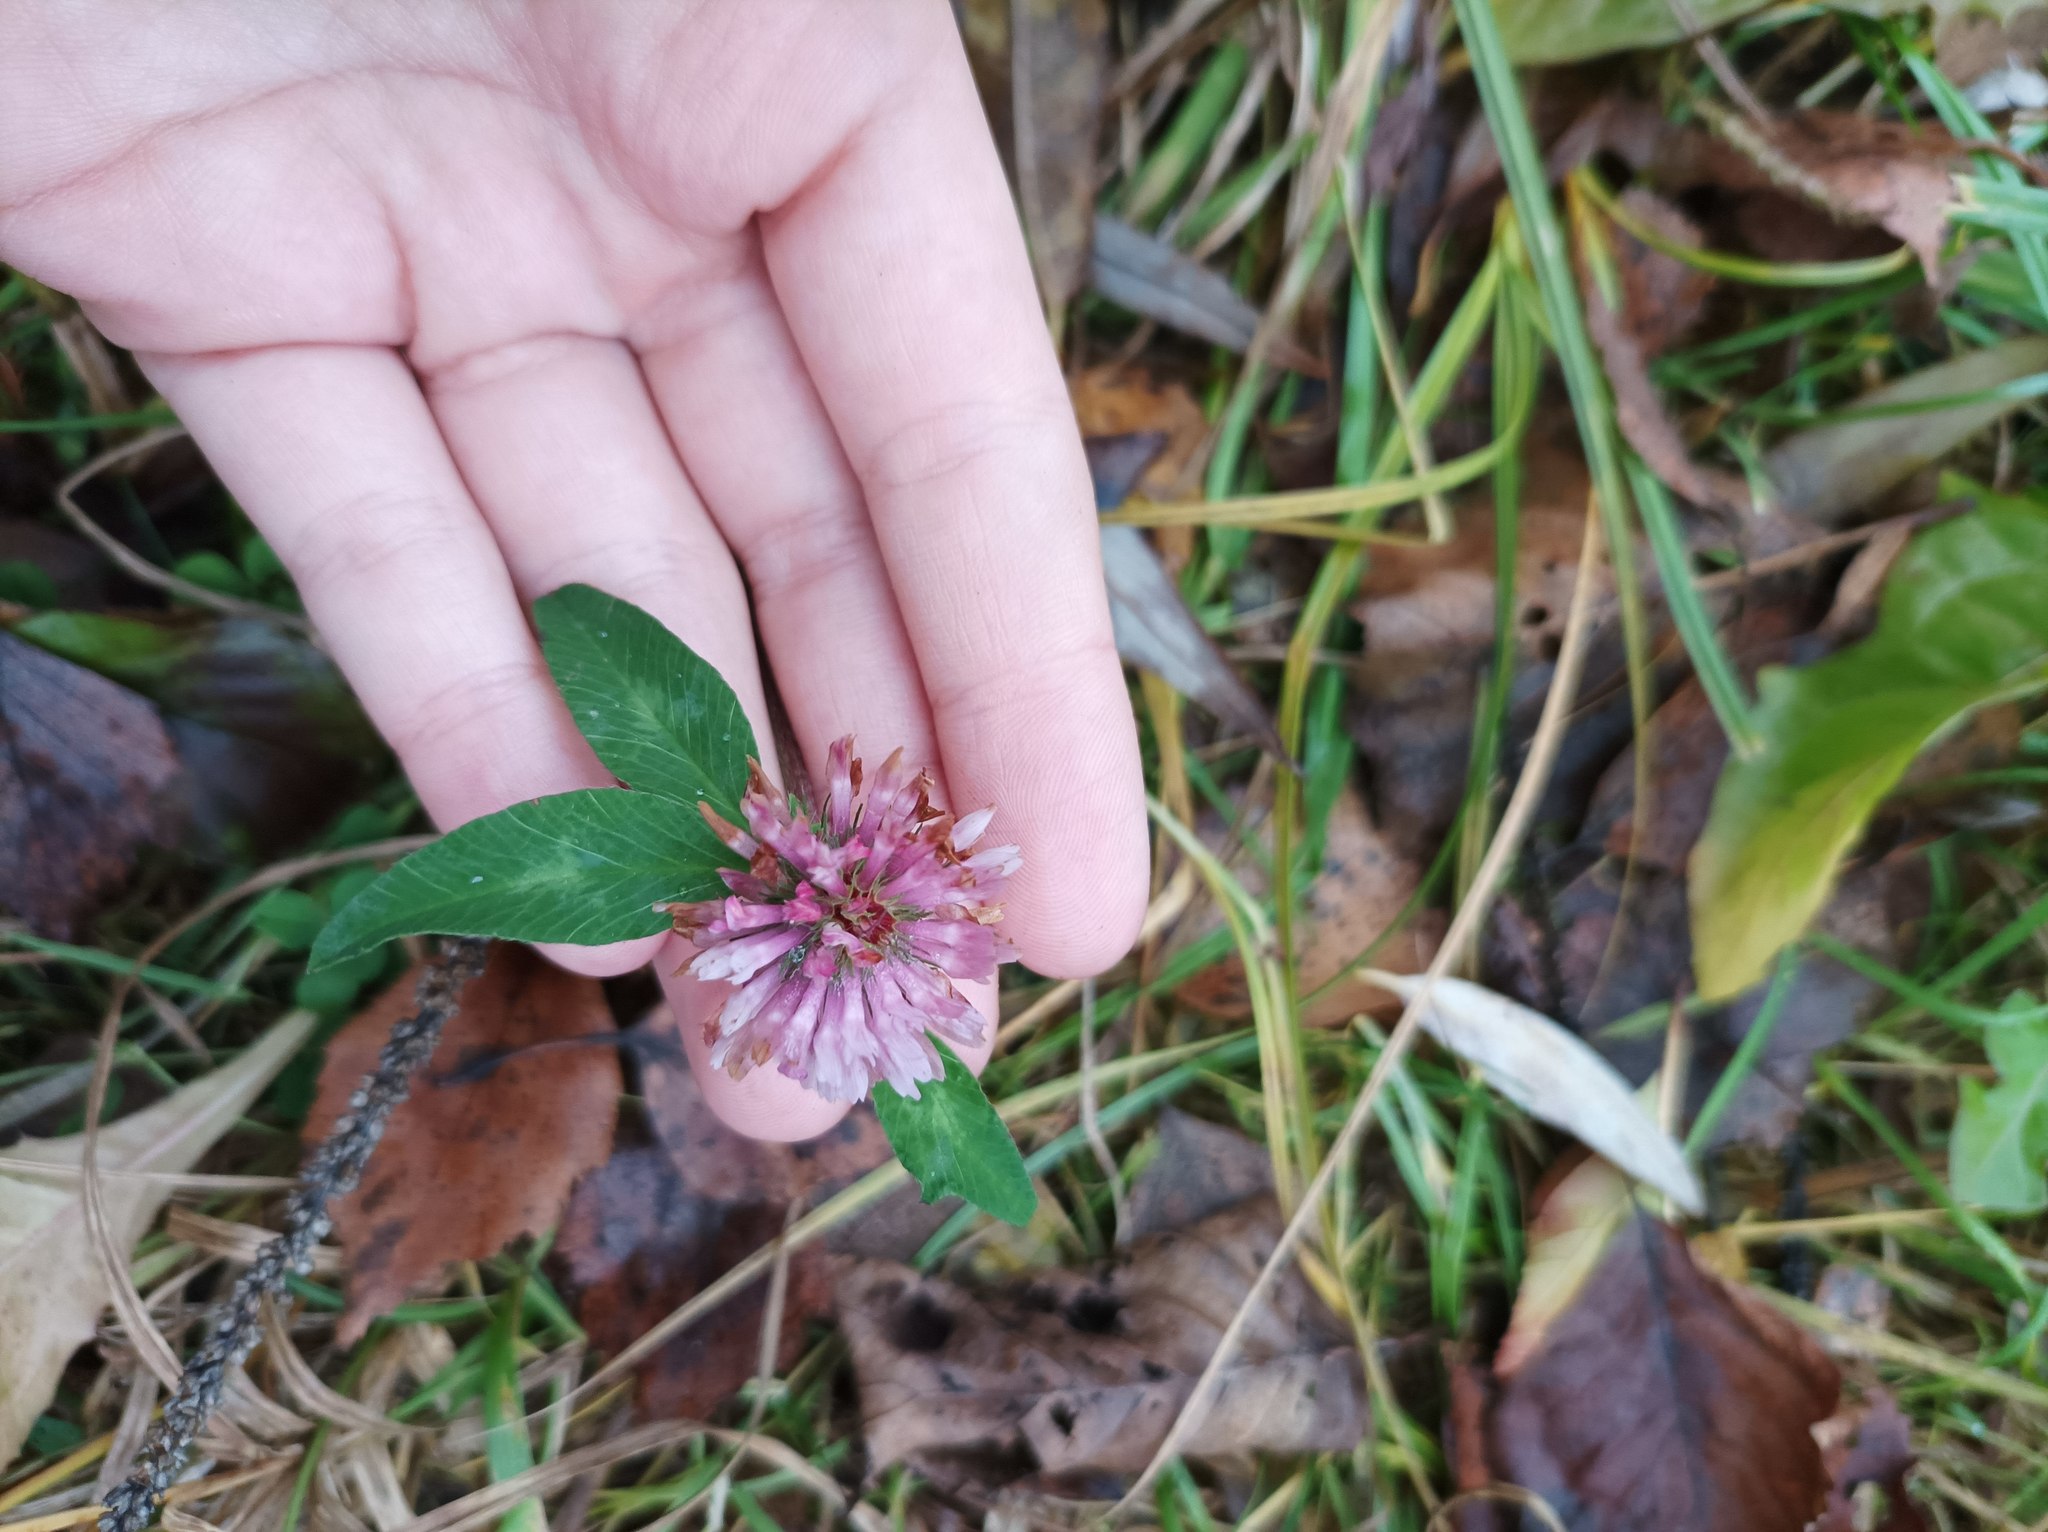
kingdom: Plantae
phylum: Tracheophyta
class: Magnoliopsida
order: Fabales
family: Fabaceae
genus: Trifolium
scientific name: Trifolium pratense
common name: Red clover
